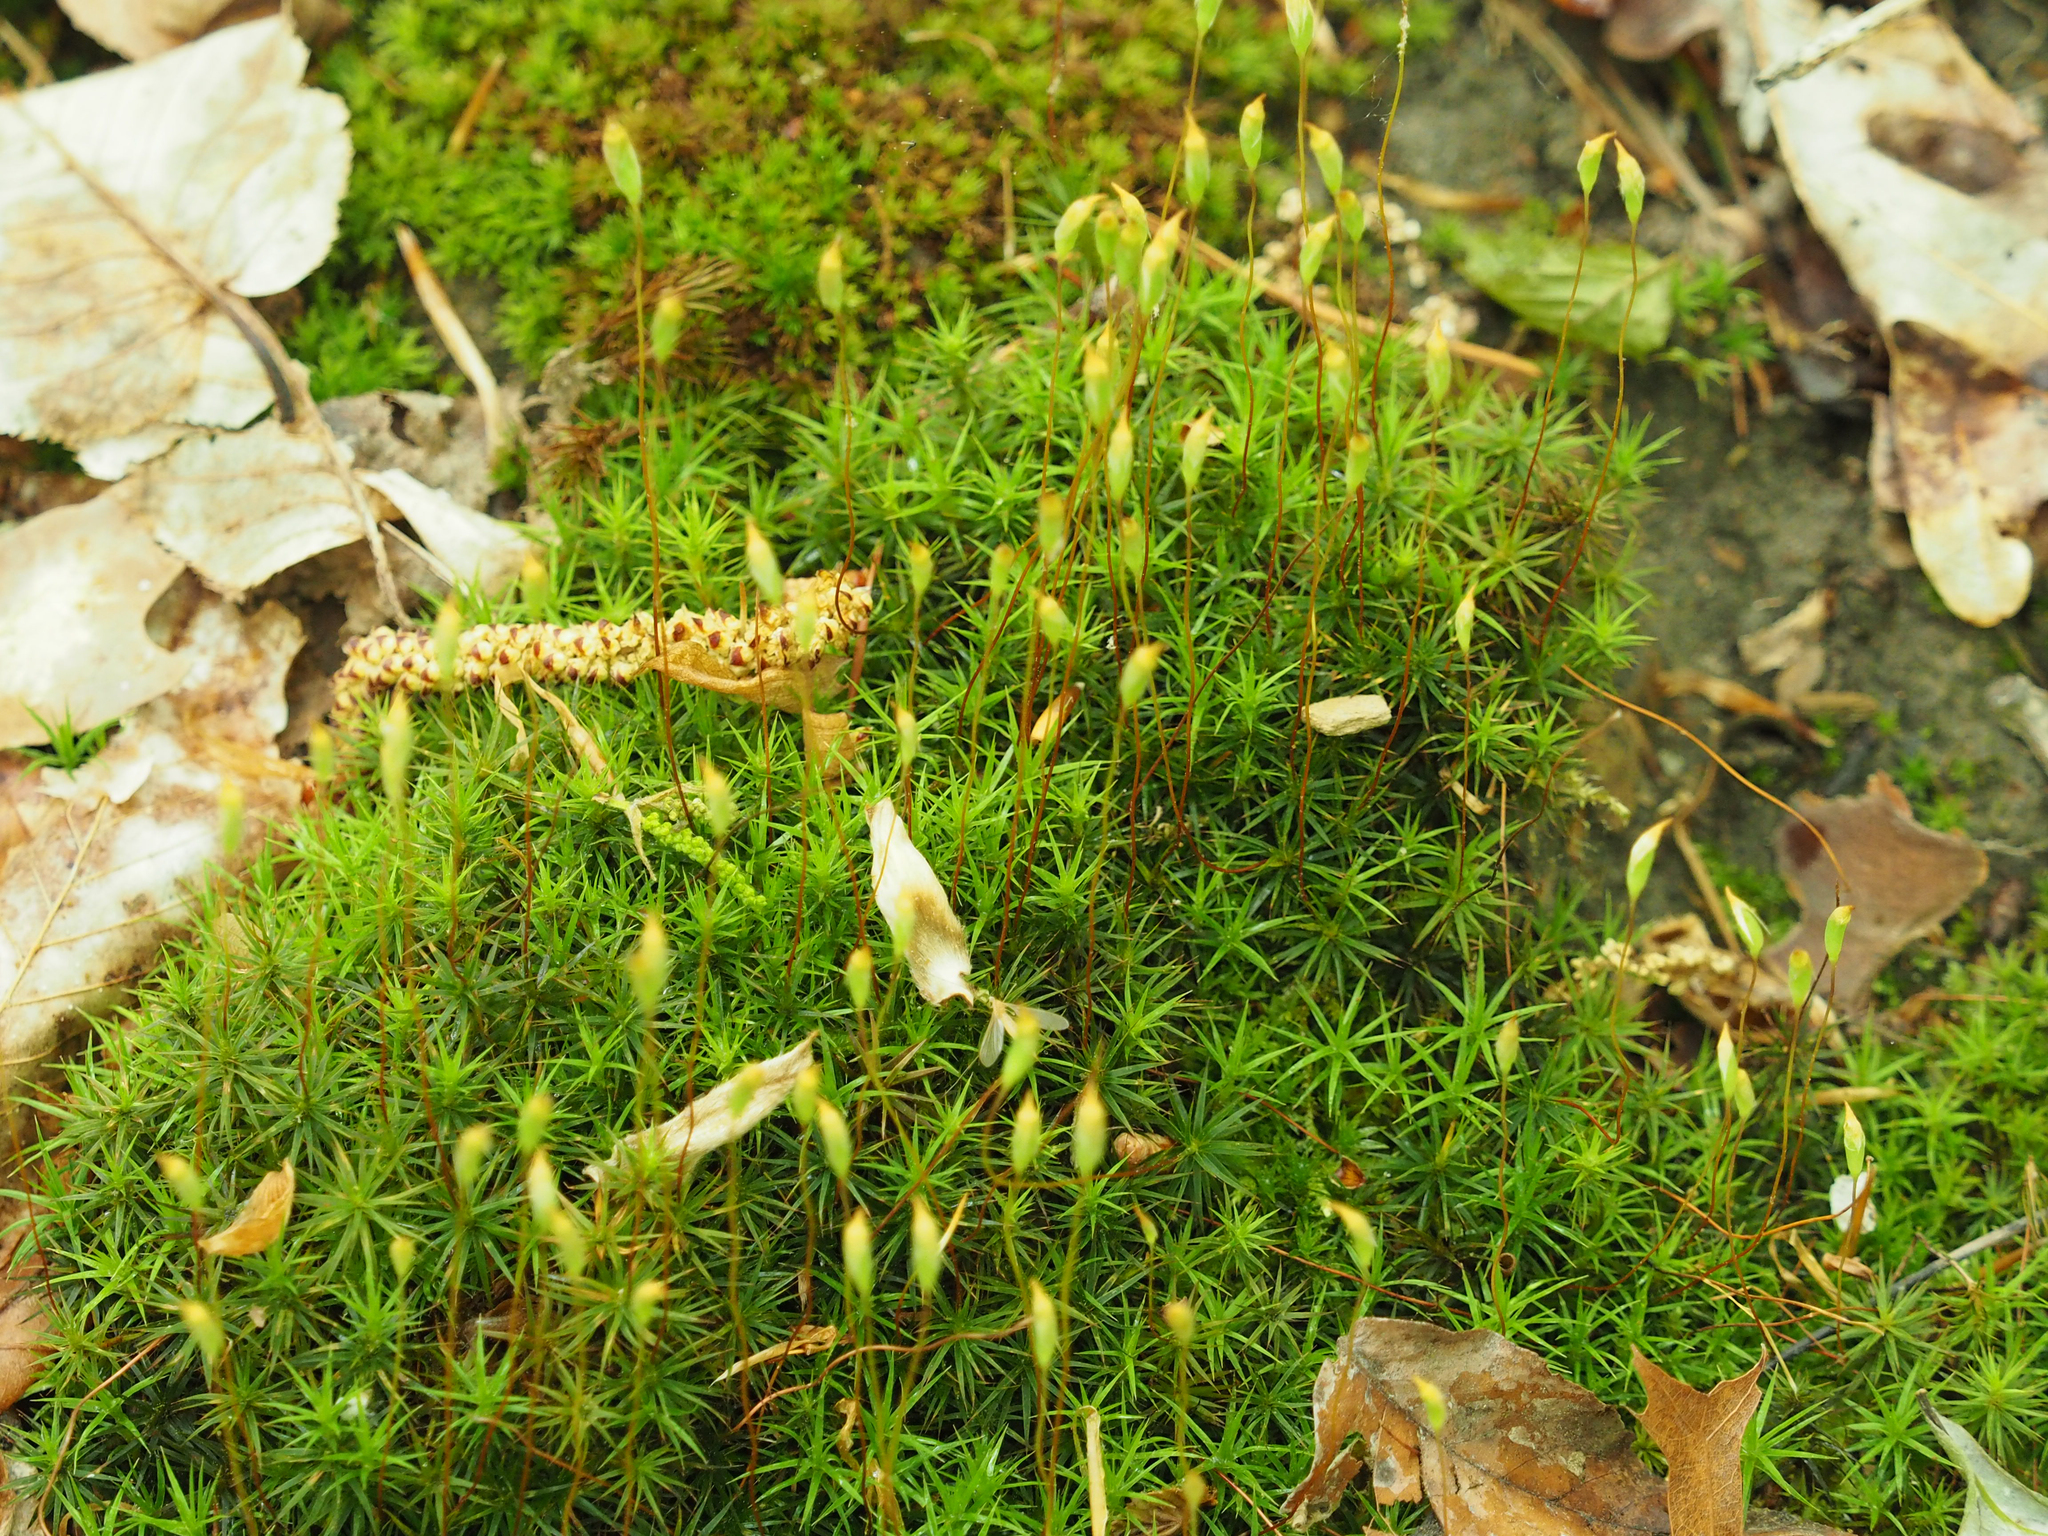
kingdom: Plantae
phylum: Bryophyta
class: Polytrichopsida
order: Polytrichales
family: Polytrichaceae
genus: Polytrichum
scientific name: Polytrichum commune
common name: Common haircap
